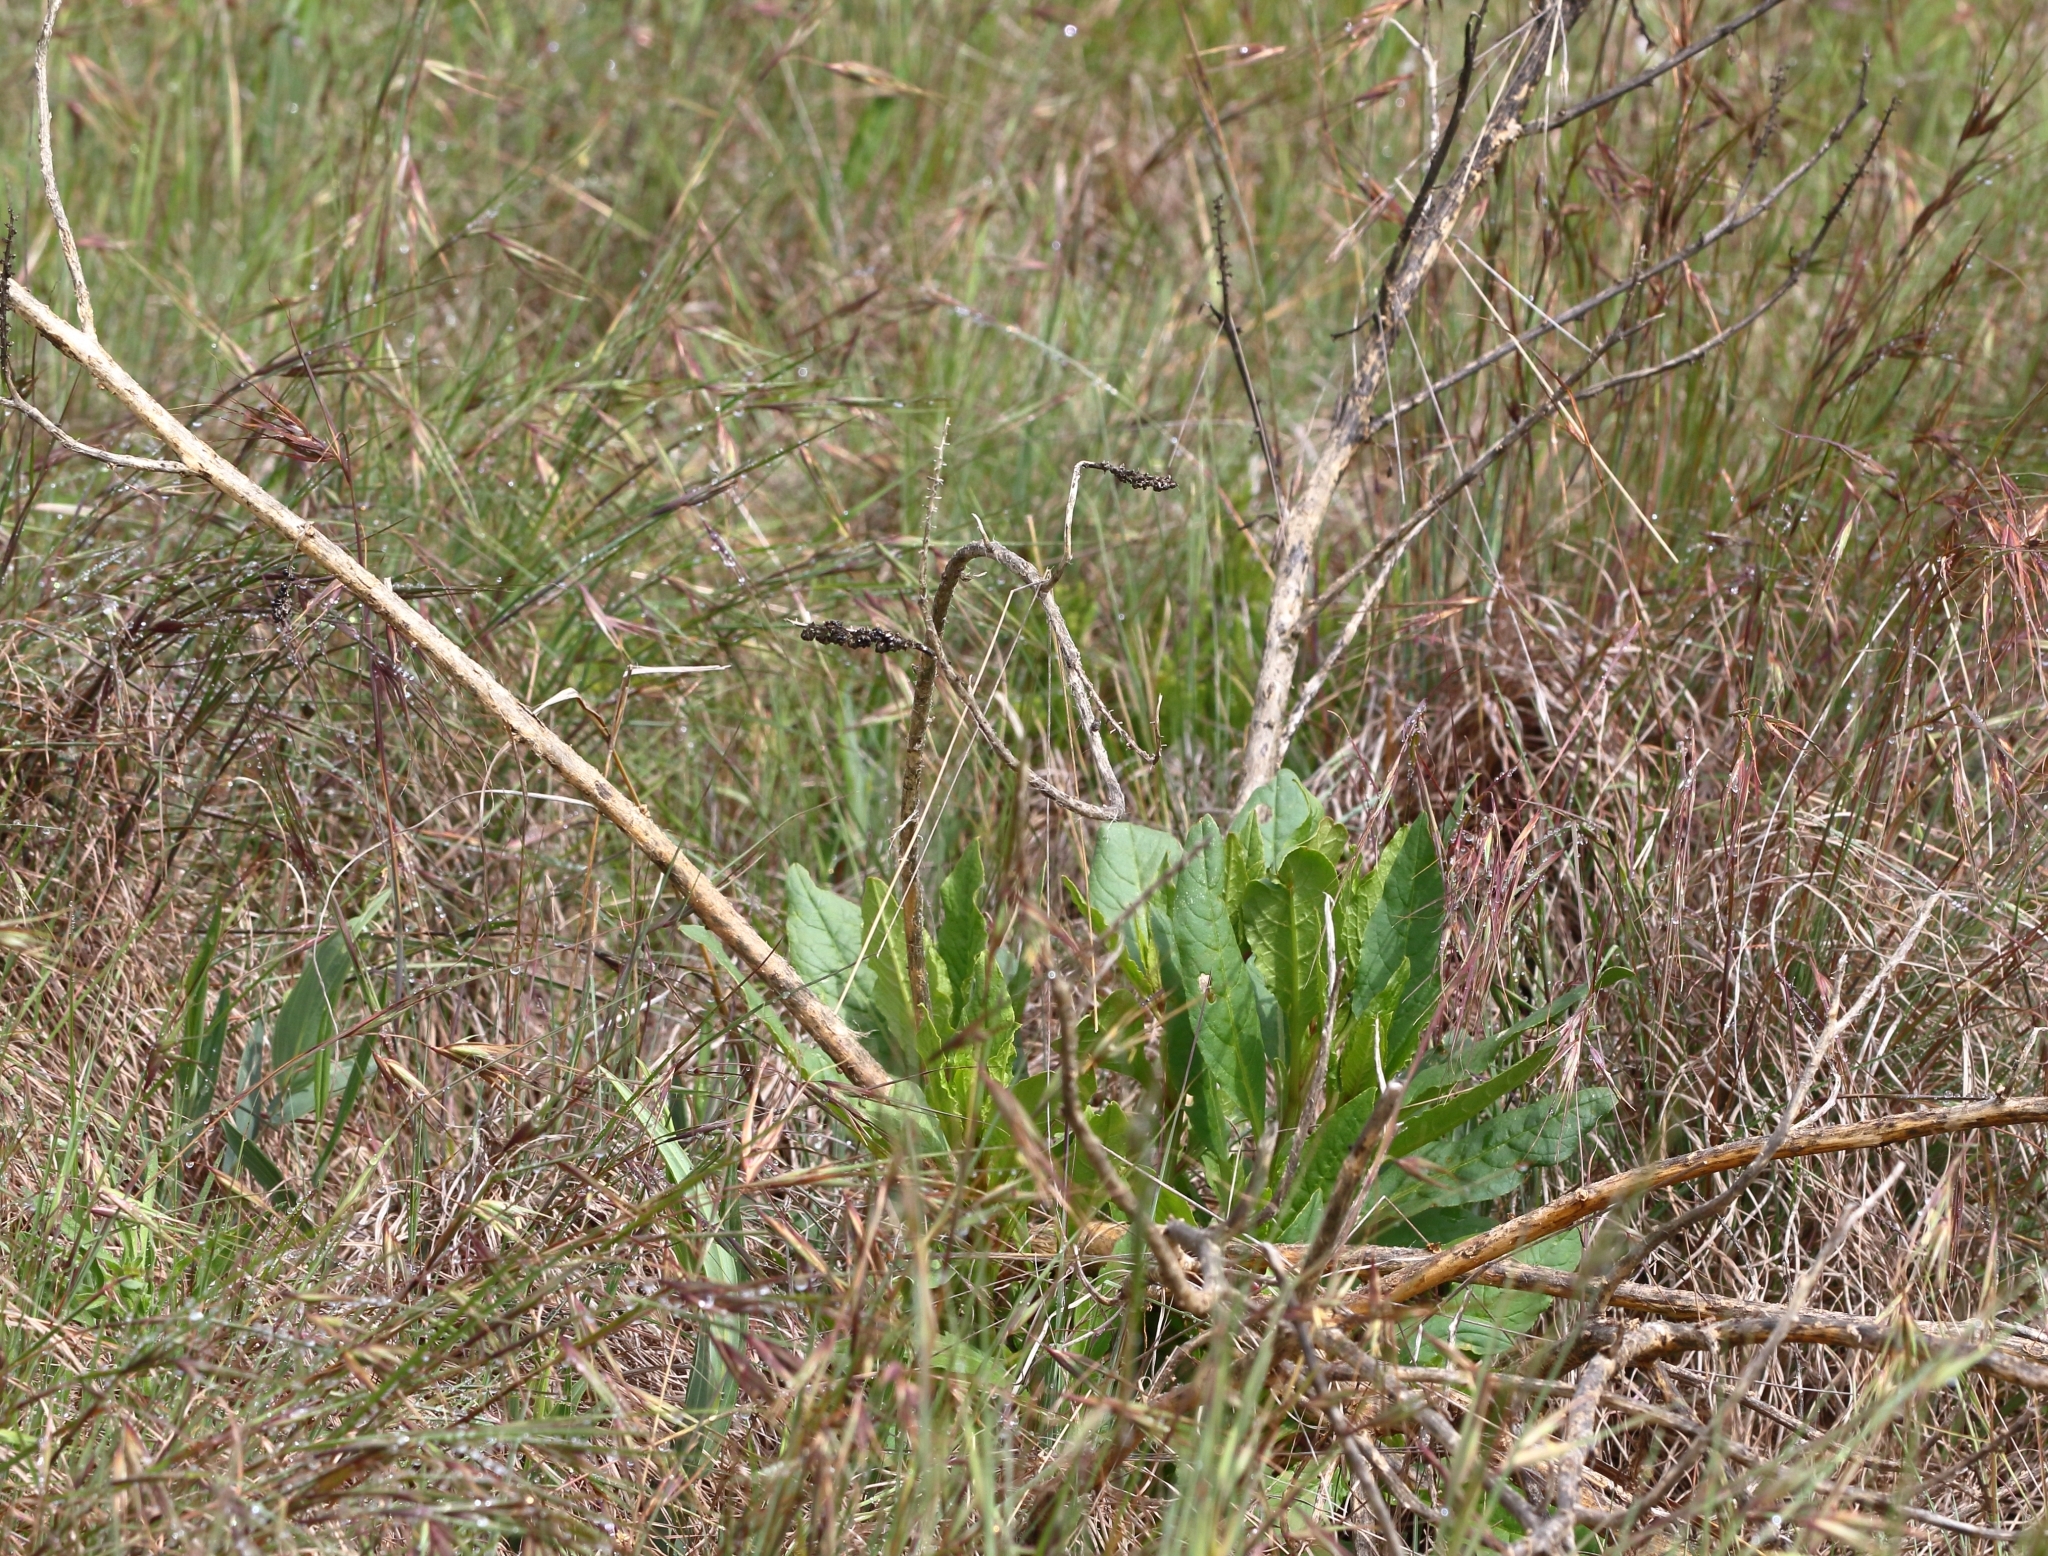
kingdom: Plantae
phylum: Tracheophyta
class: Magnoliopsida
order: Caryophyllales
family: Phytolaccaceae
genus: Phytolacca
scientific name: Phytolacca icosandra
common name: Button pokeweed
